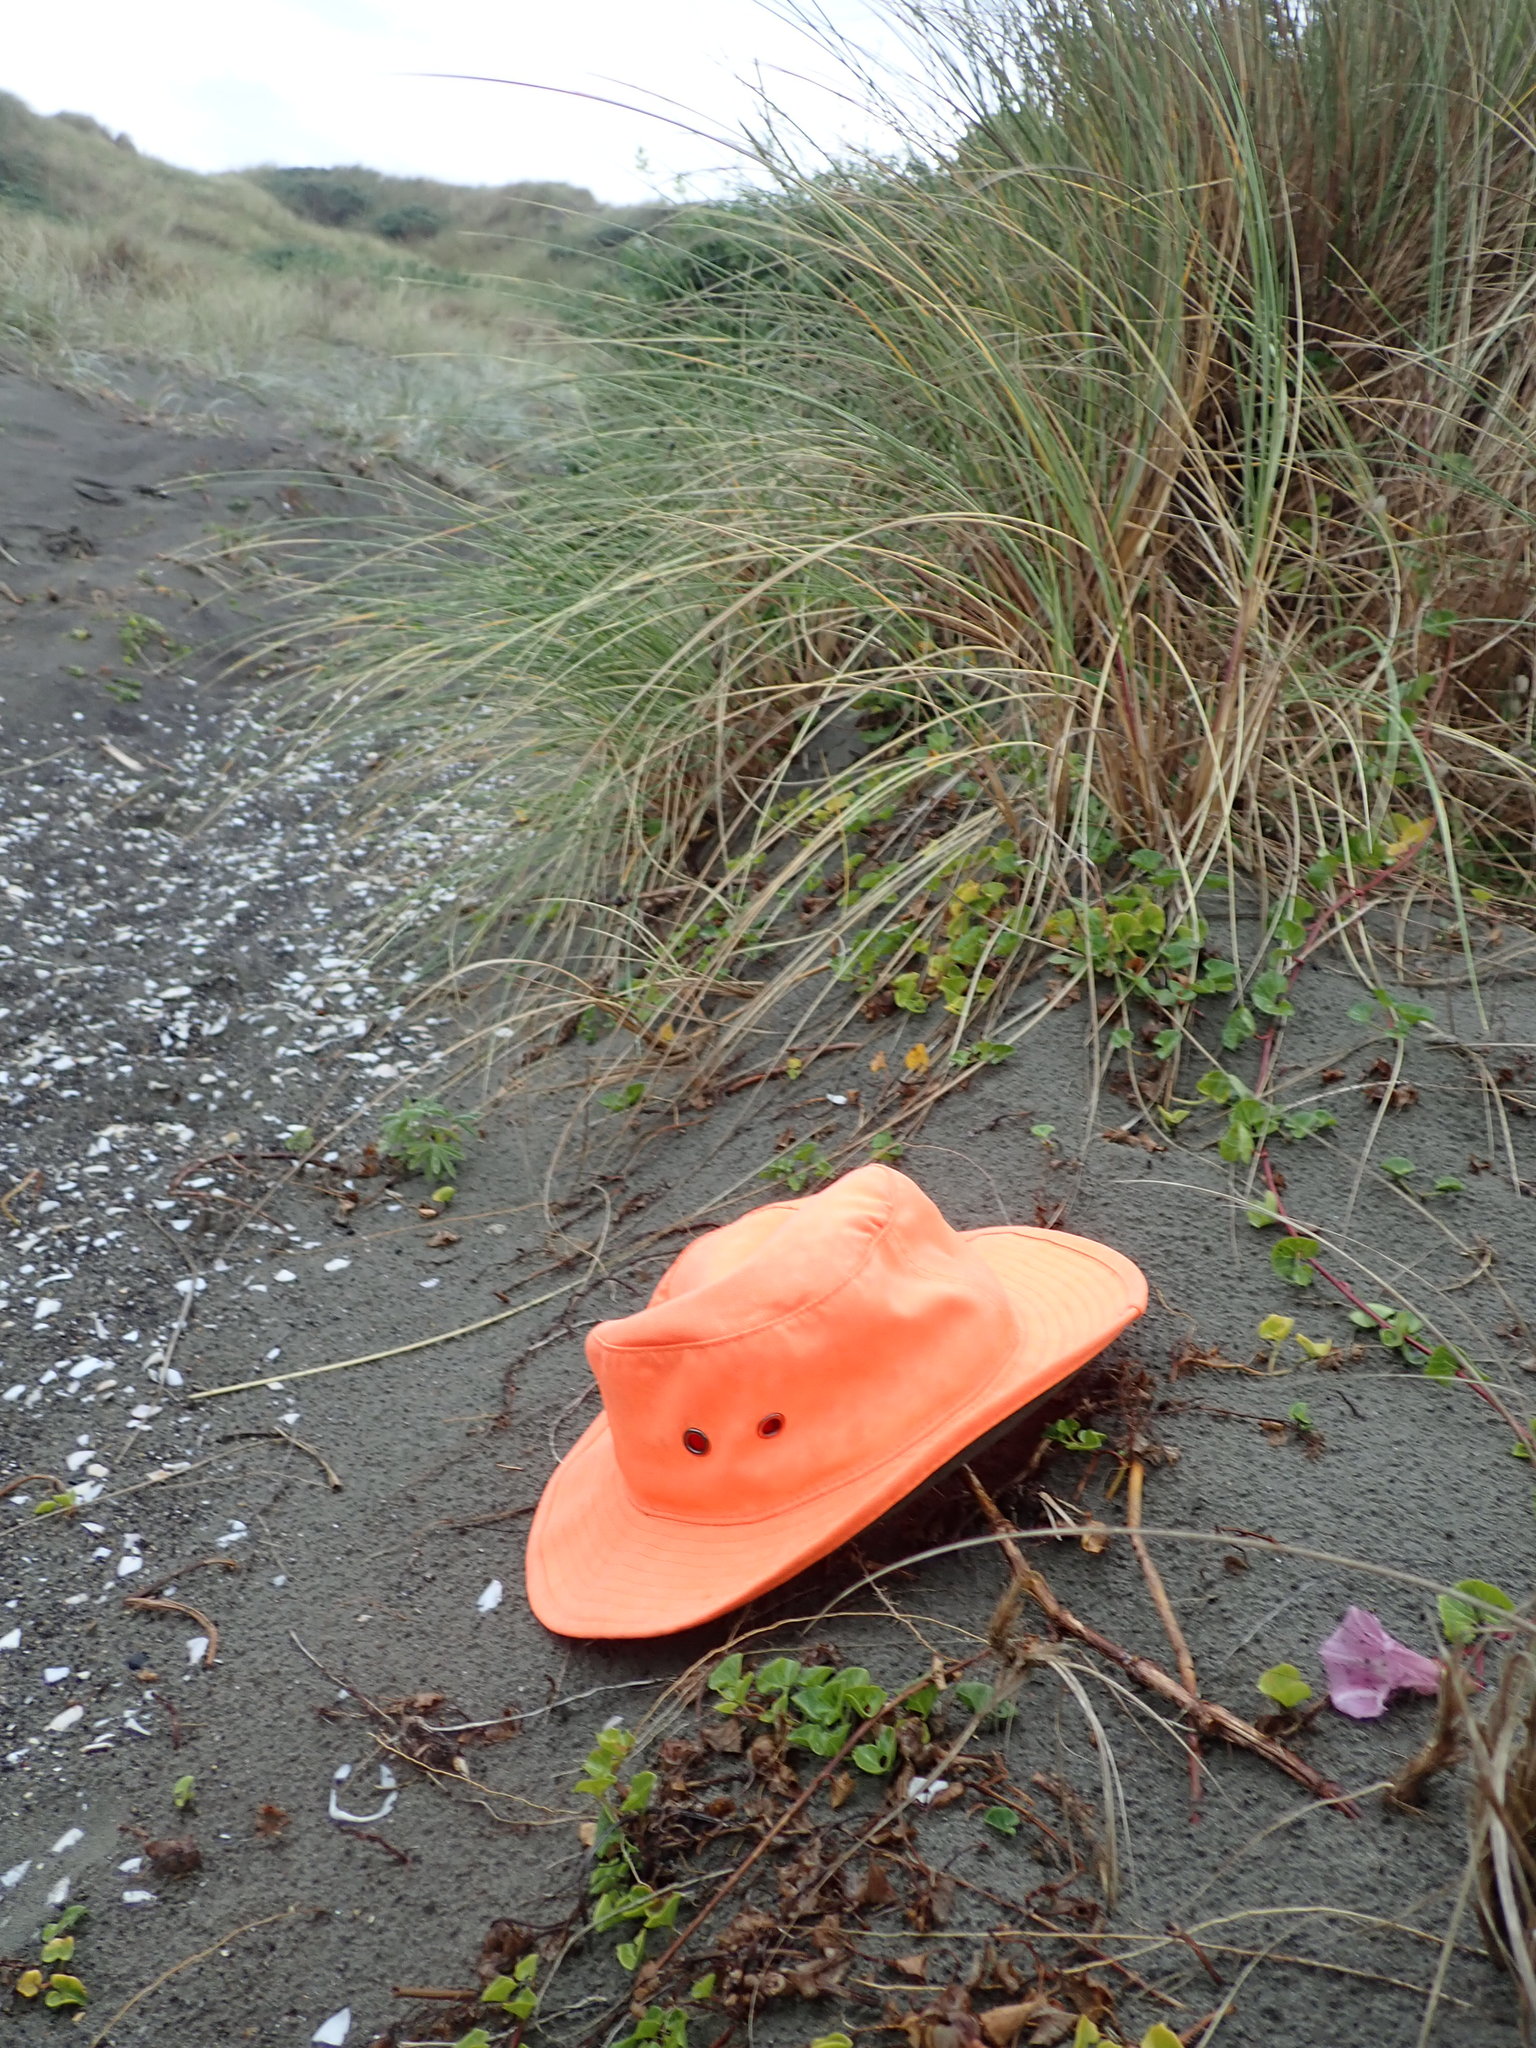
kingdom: Plantae
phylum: Tracheophyta
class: Magnoliopsida
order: Solanales
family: Convolvulaceae
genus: Calystegia
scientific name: Calystegia soldanella
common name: Sea bindweed
